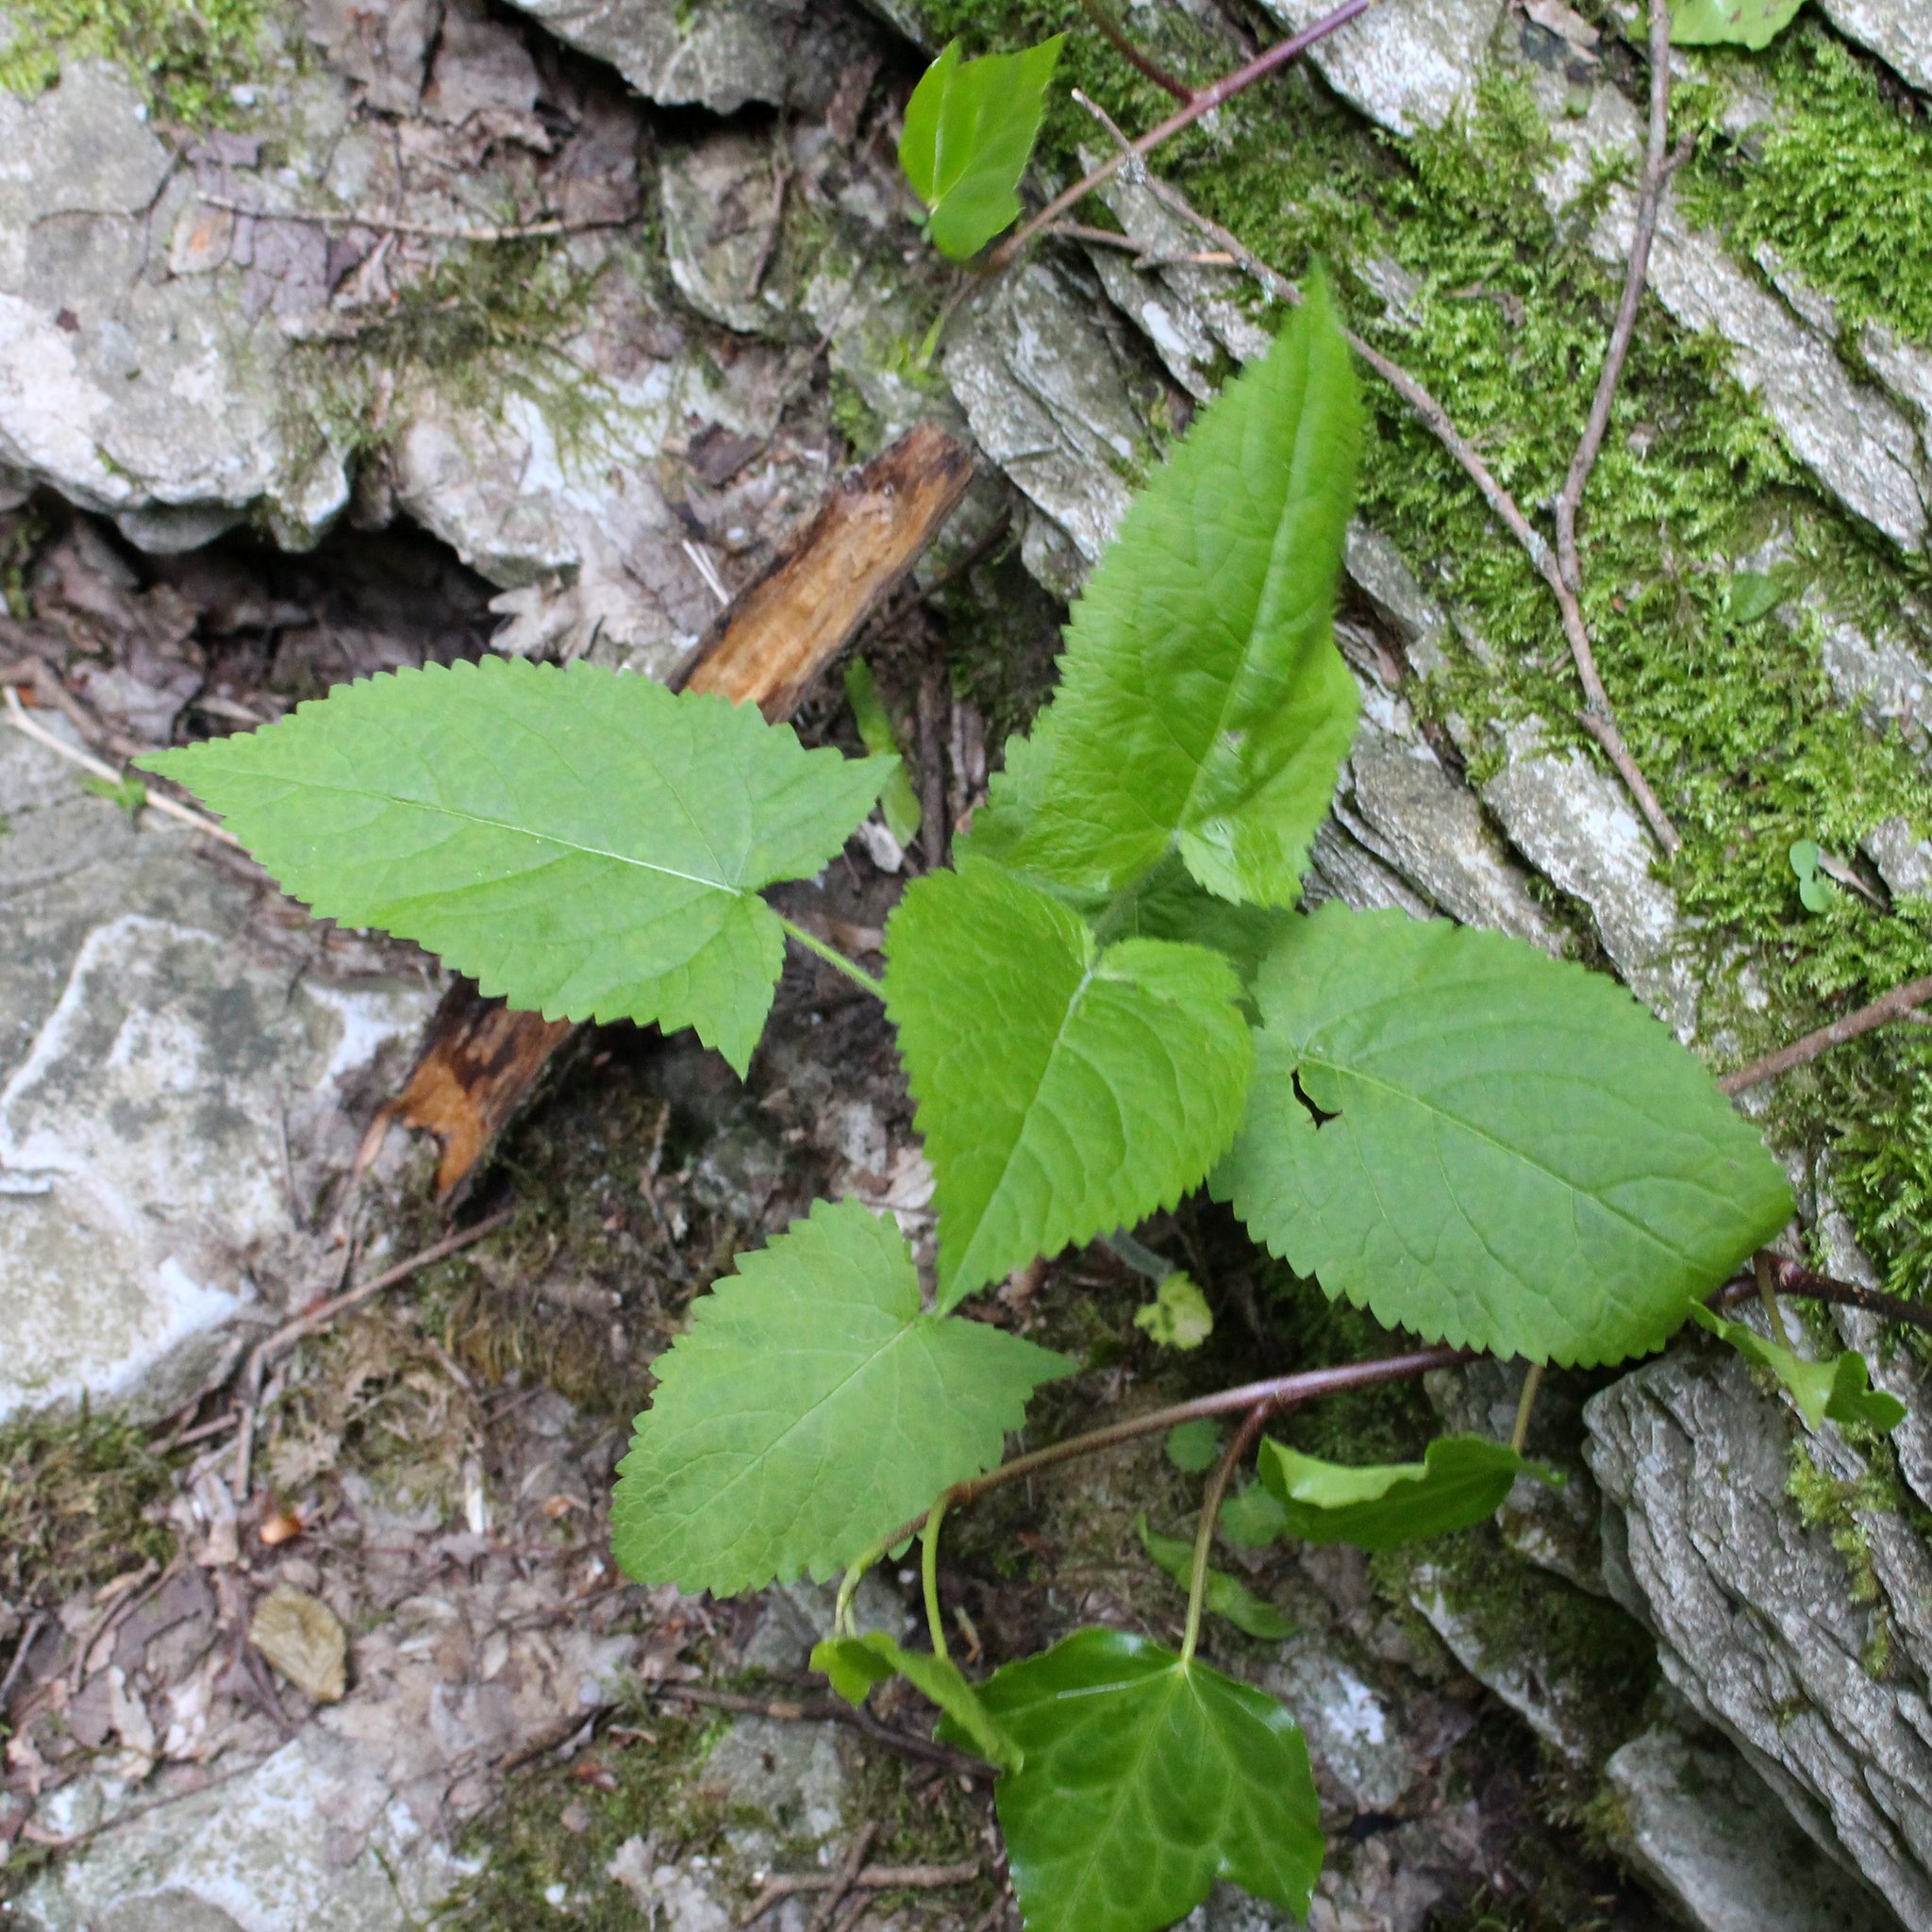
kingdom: Plantae
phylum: Tracheophyta
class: Magnoliopsida
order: Lamiales
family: Lamiaceae
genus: Salvia
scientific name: Salvia glutinosa
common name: Sticky clary
